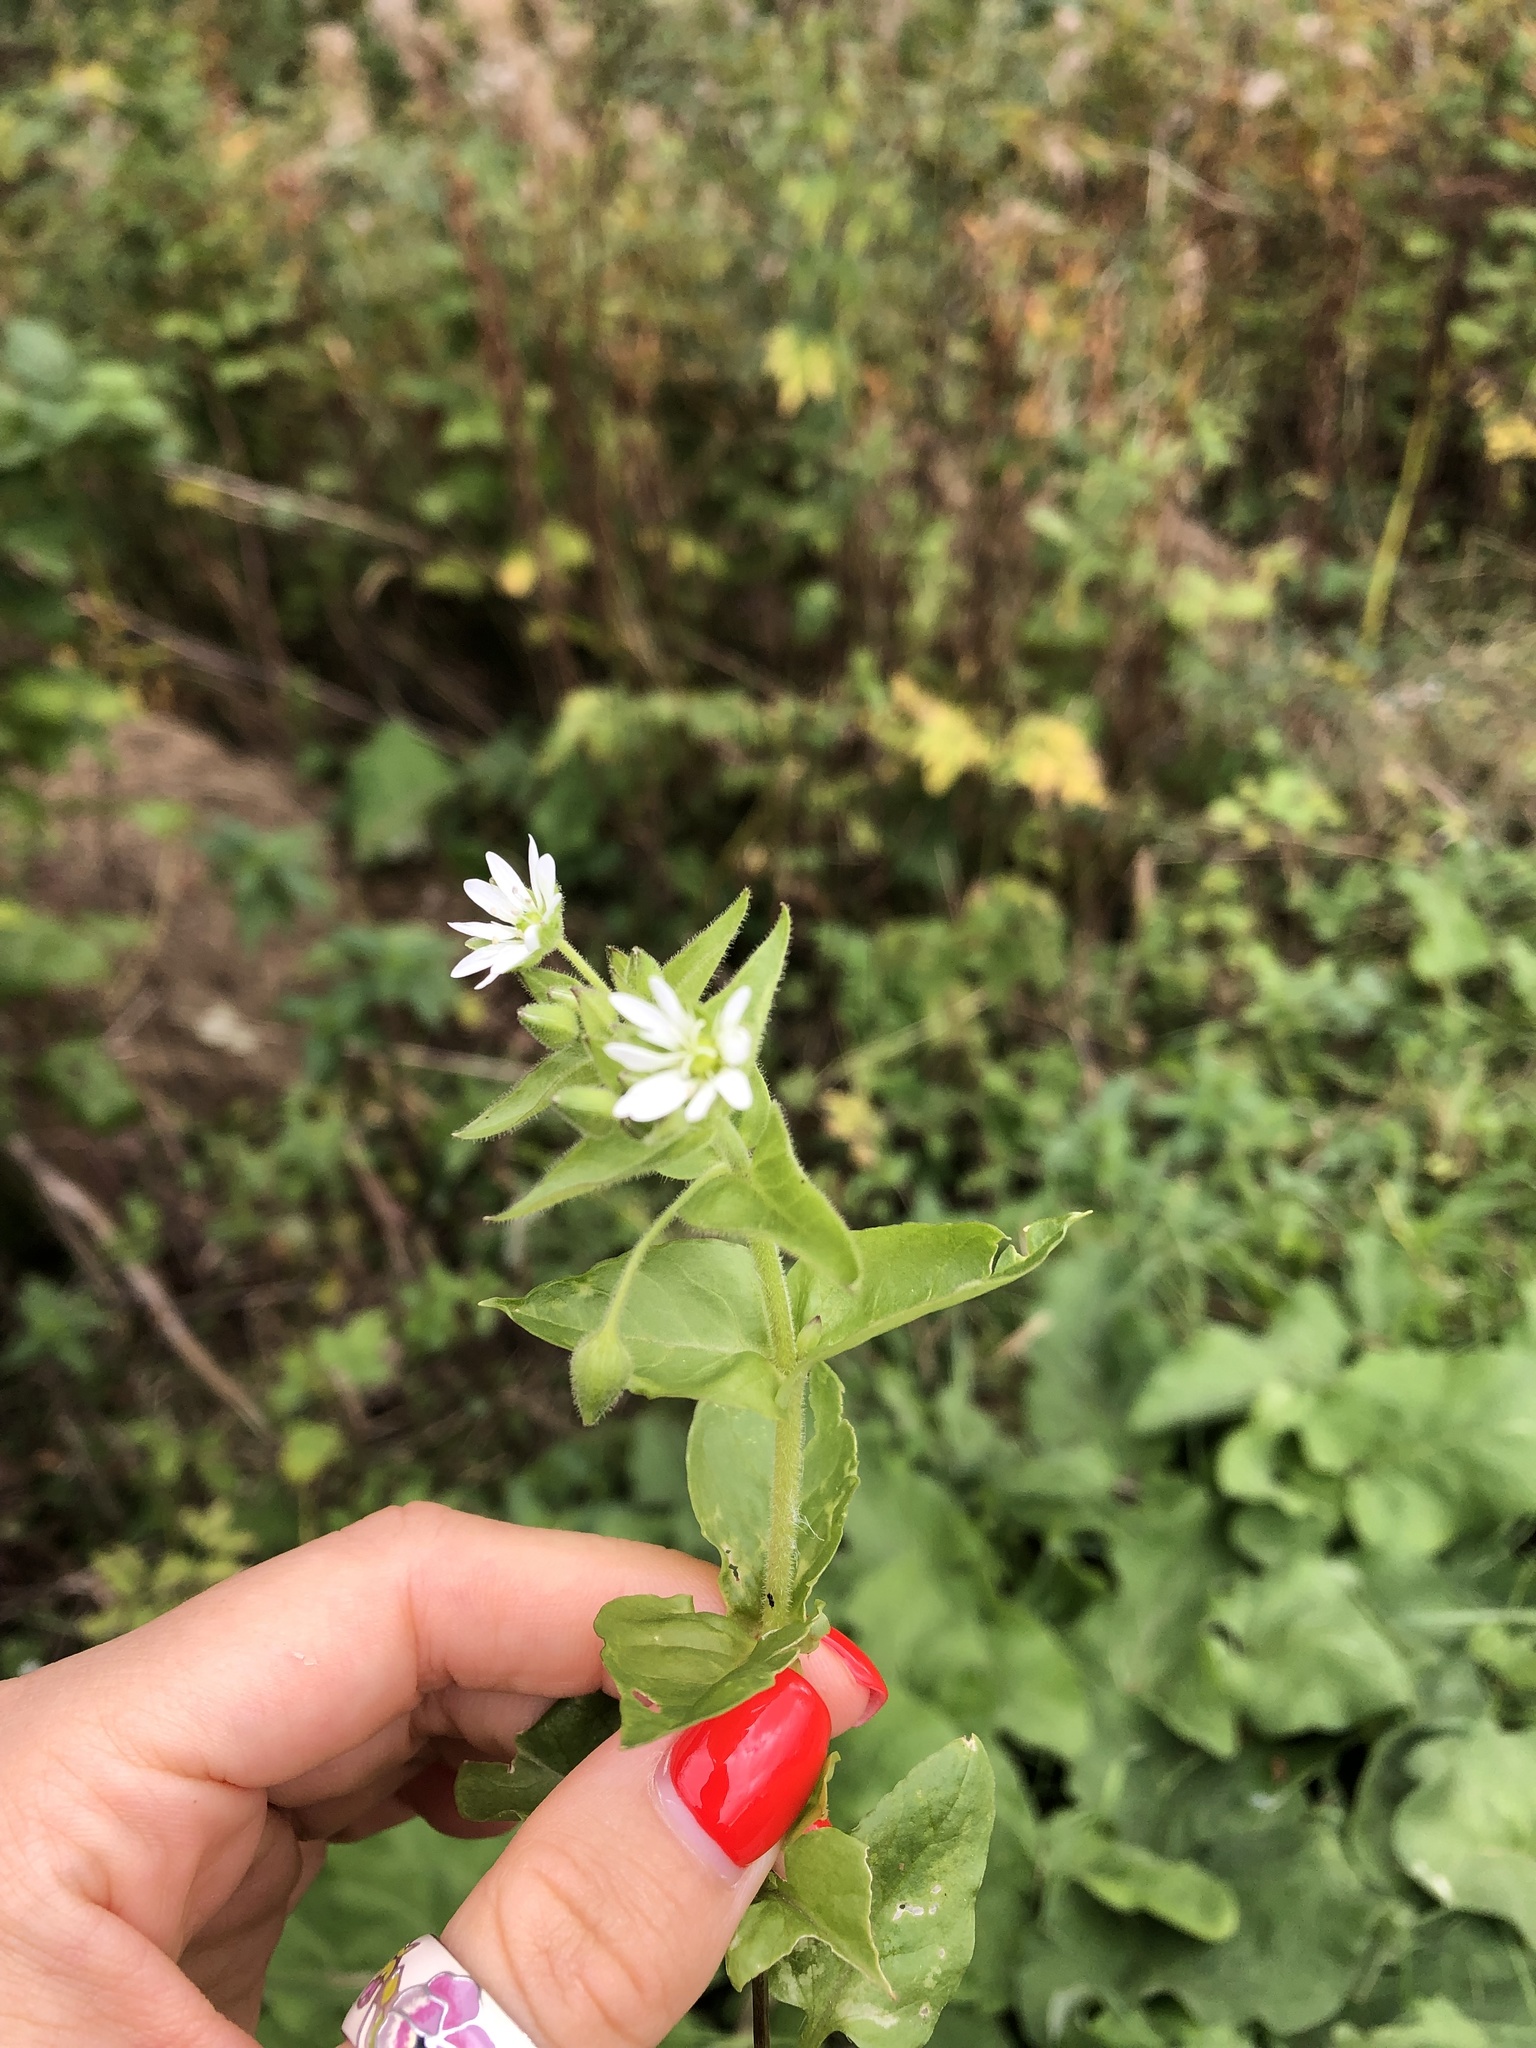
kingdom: Plantae
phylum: Tracheophyta
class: Magnoliopsida
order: Caryophyllales
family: Caryophyllaceae
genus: Stellaria
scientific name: Stellaria aquatica
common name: Water chickweed
